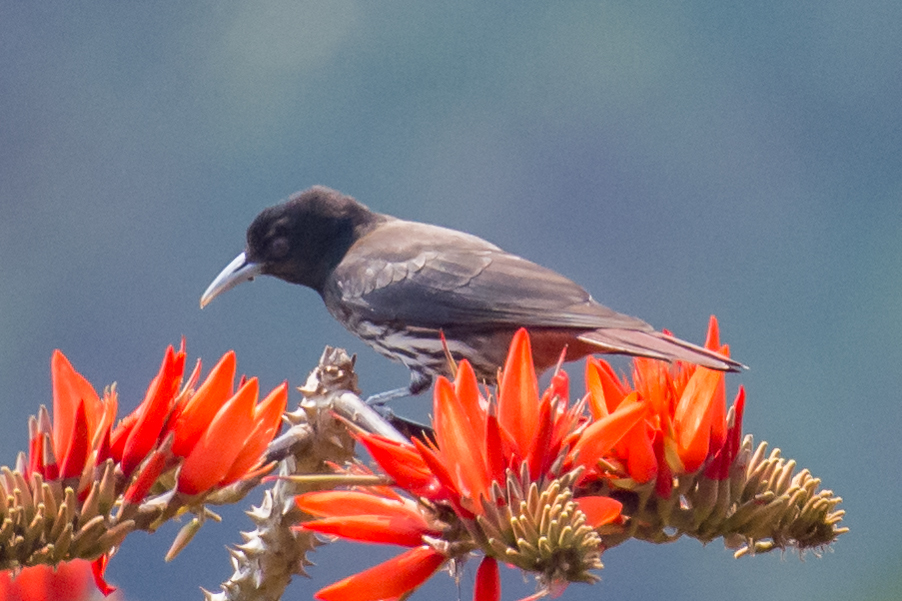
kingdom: Animalia
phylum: Chordata
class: Aves
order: Passeriformes
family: Oriolidae
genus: Oriolus
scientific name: Oriolus traillii
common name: Maroon oriole
